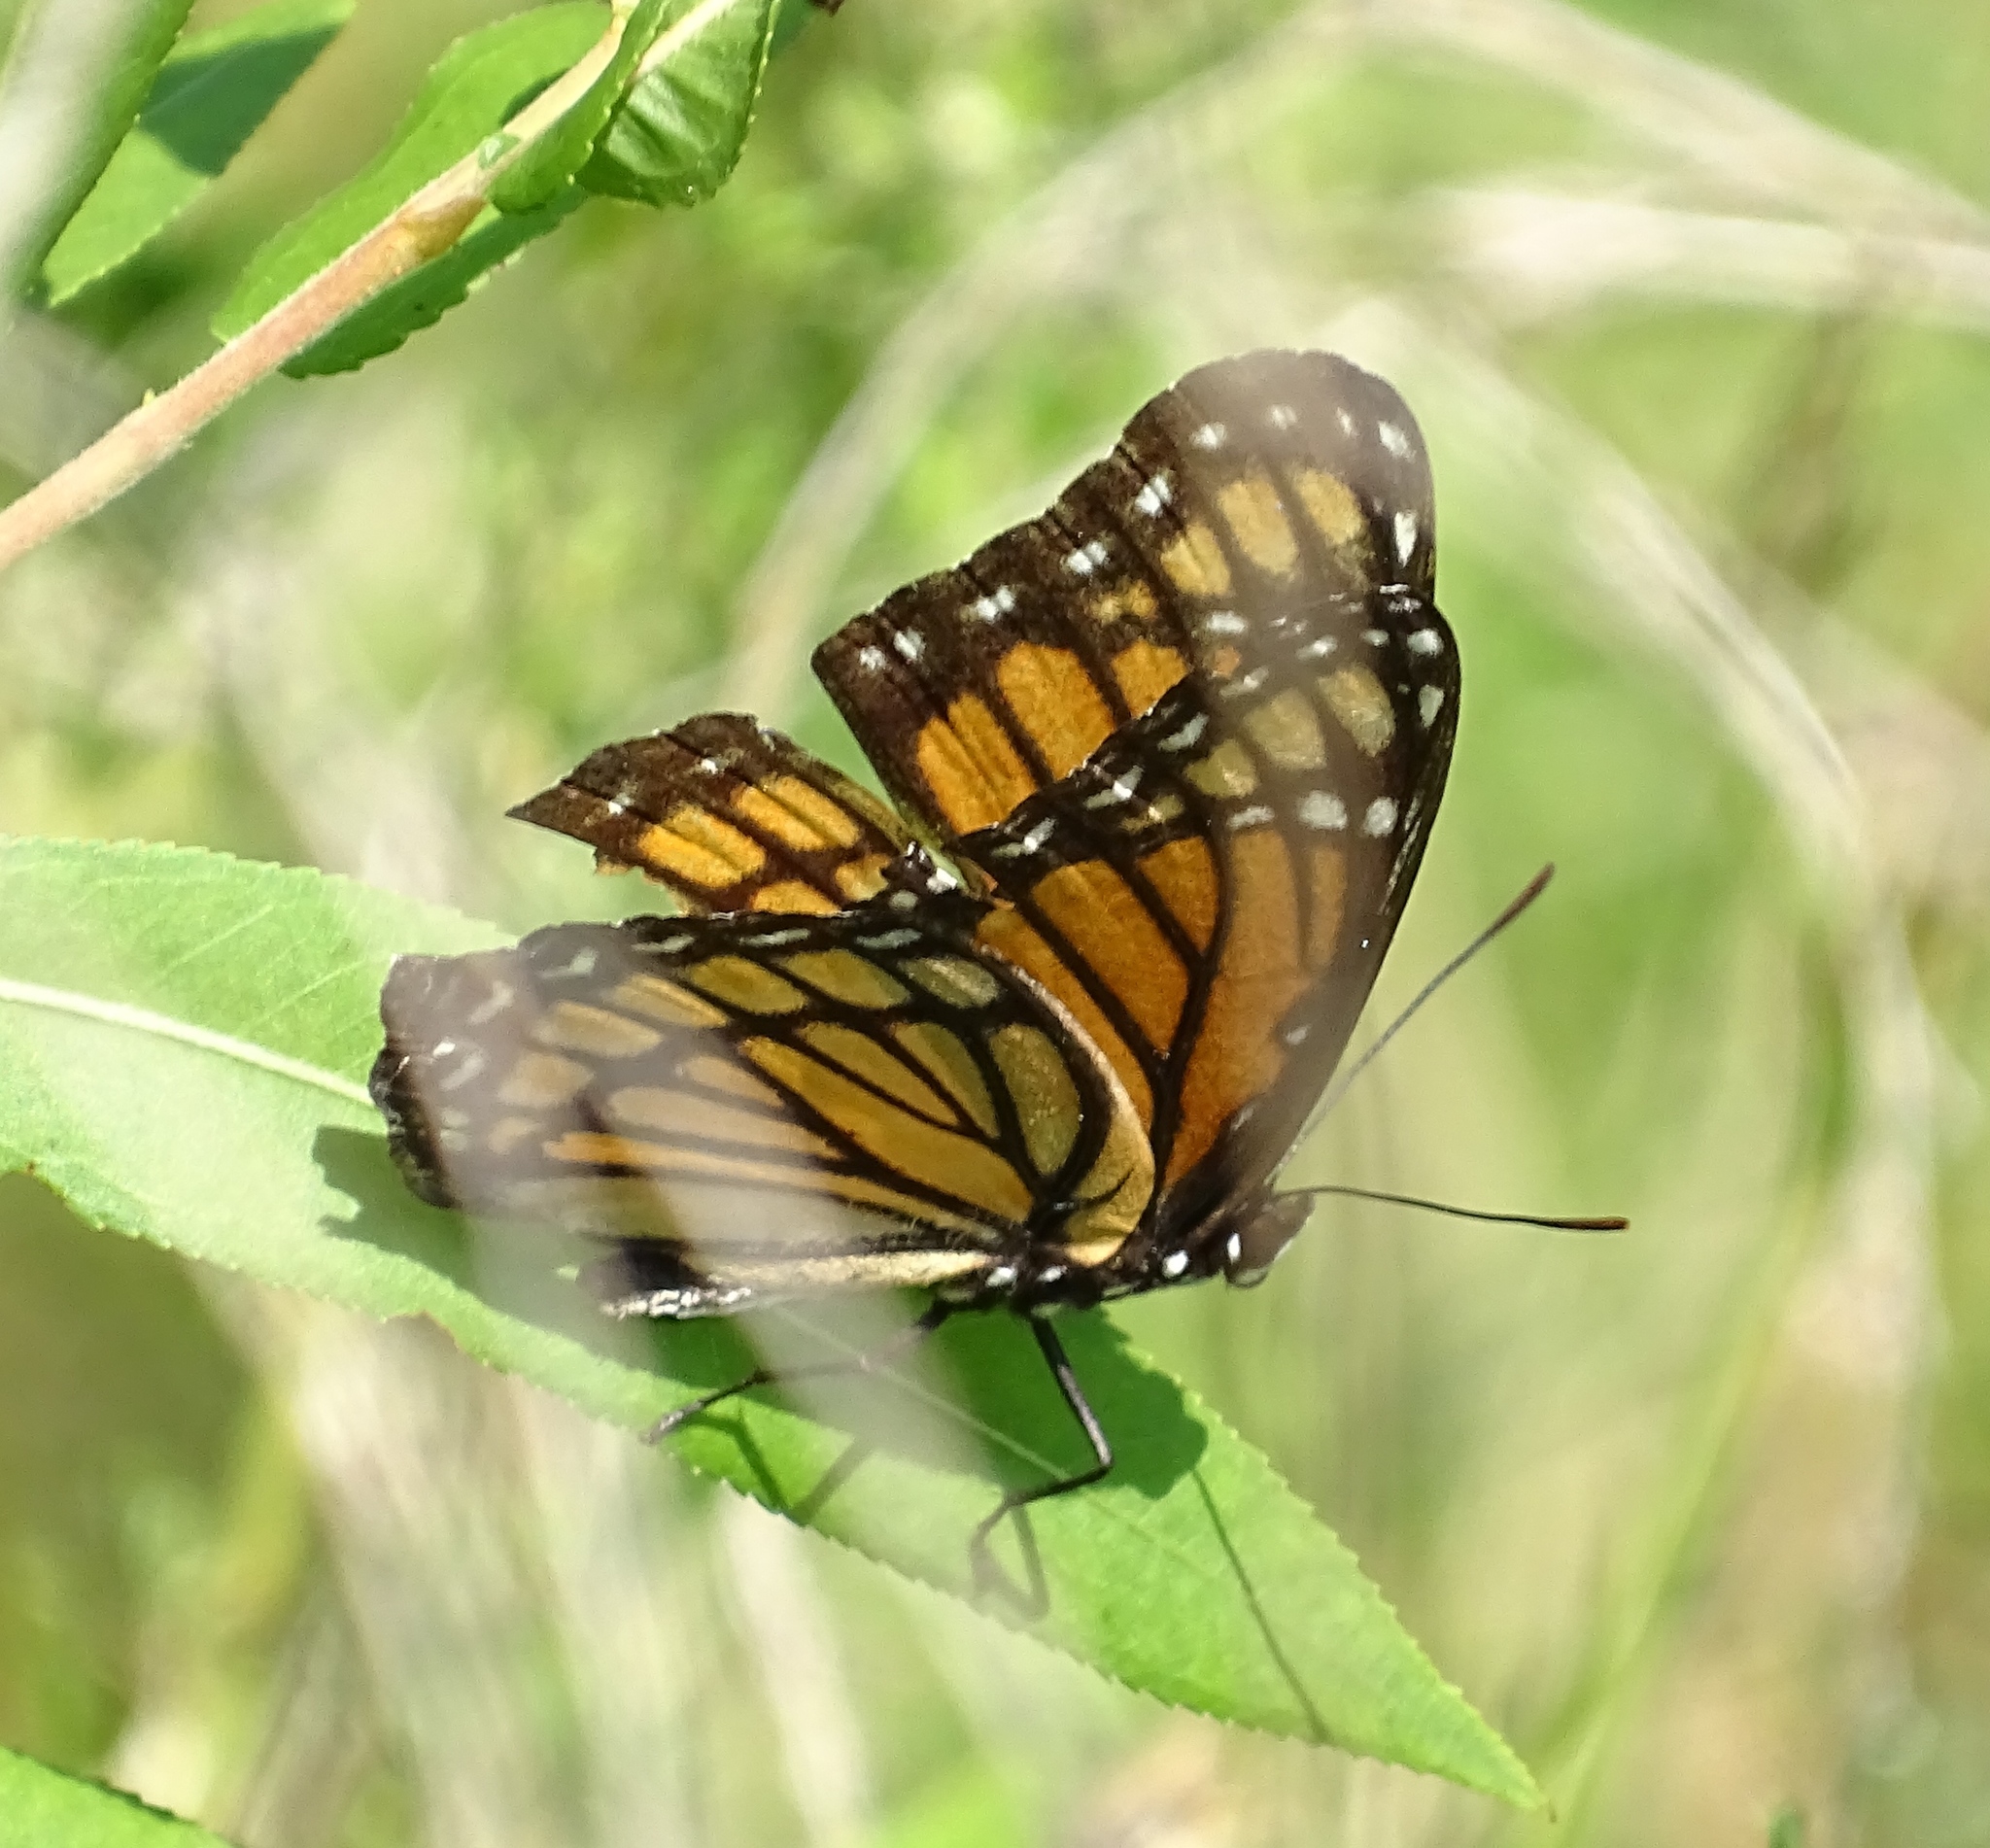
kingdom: Animalia
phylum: Arthropoda
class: Insecta
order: Lepidoptera
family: Nymphalidae
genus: Limenitis
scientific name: Limenitis archippus
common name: Viceroy
